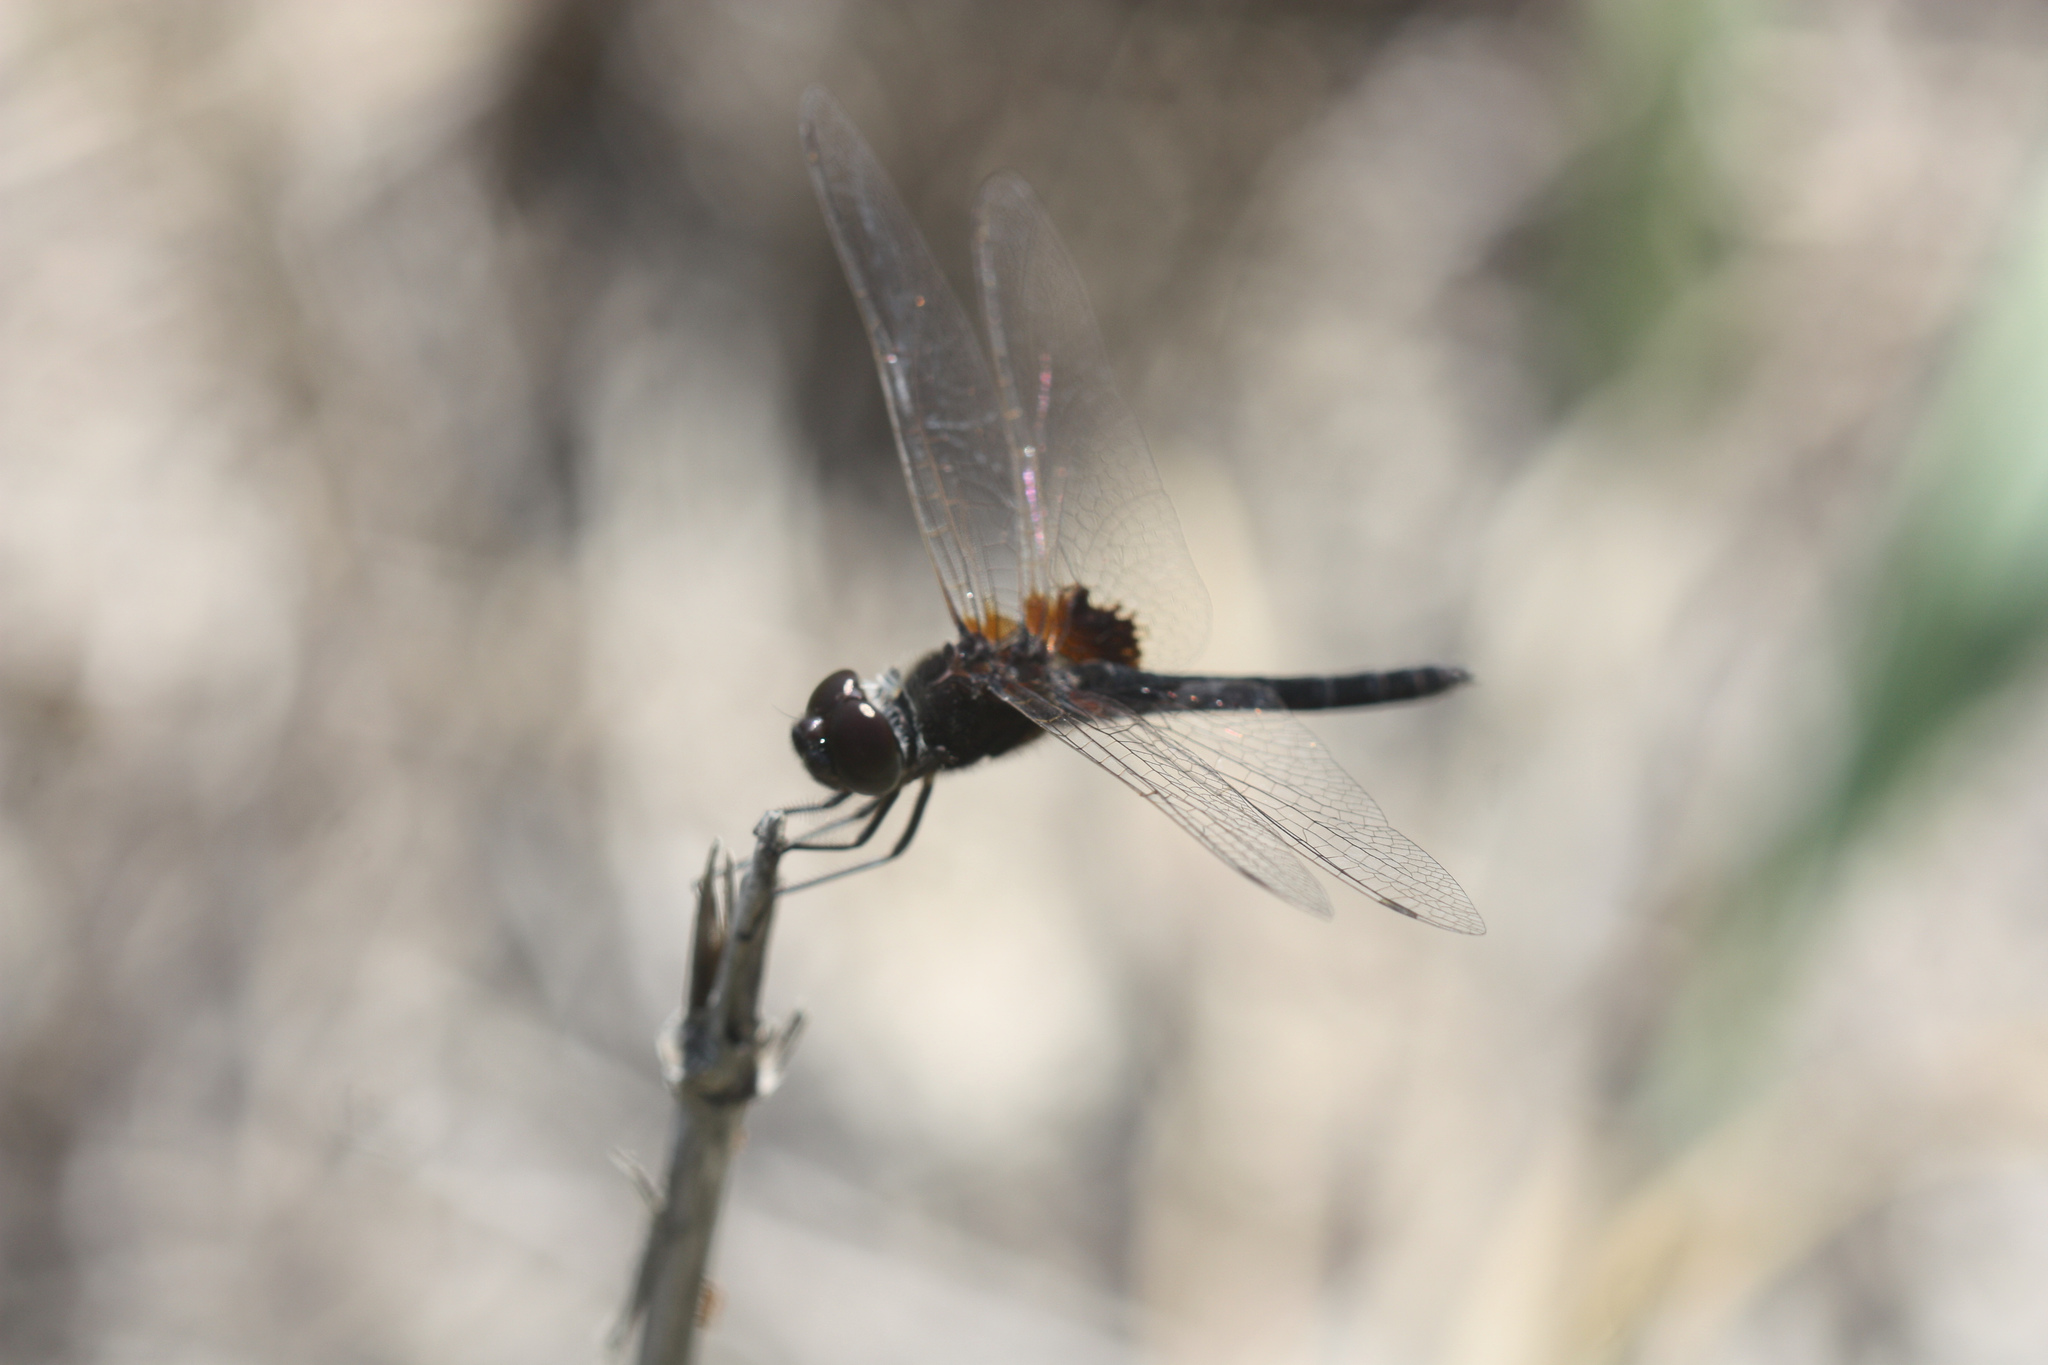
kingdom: Animalia
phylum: Arthropoda
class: Insecta
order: Odonata
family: Libellulidae
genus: Macrodiplax
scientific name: Macrodiplax balteata
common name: Marl pennant
